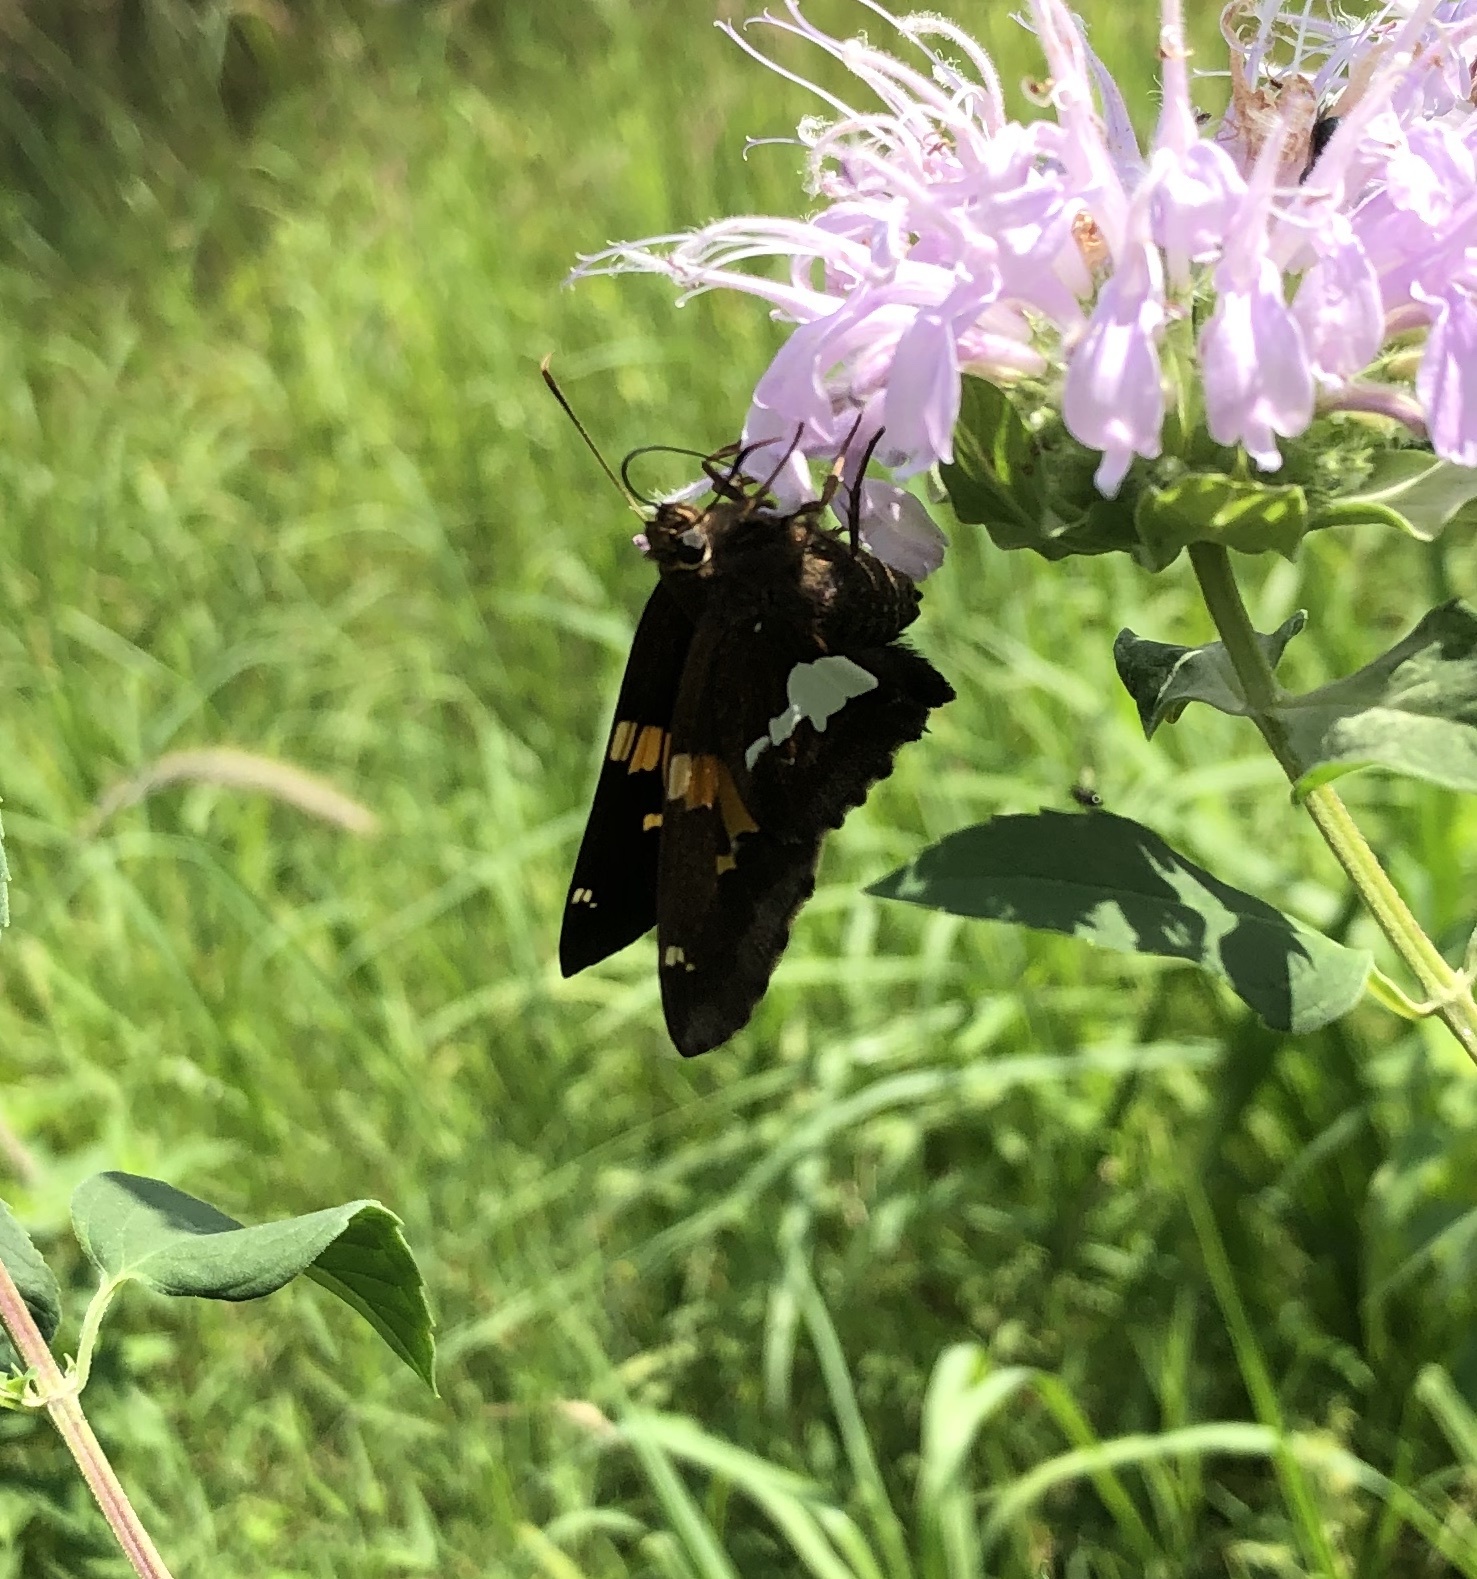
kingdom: Animalia
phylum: Arthropoda
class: Insecta
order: Lepidoptera
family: Hesperiidae
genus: Epargyreus
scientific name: Epargyreus clarus
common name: Silver-spotted skipper
